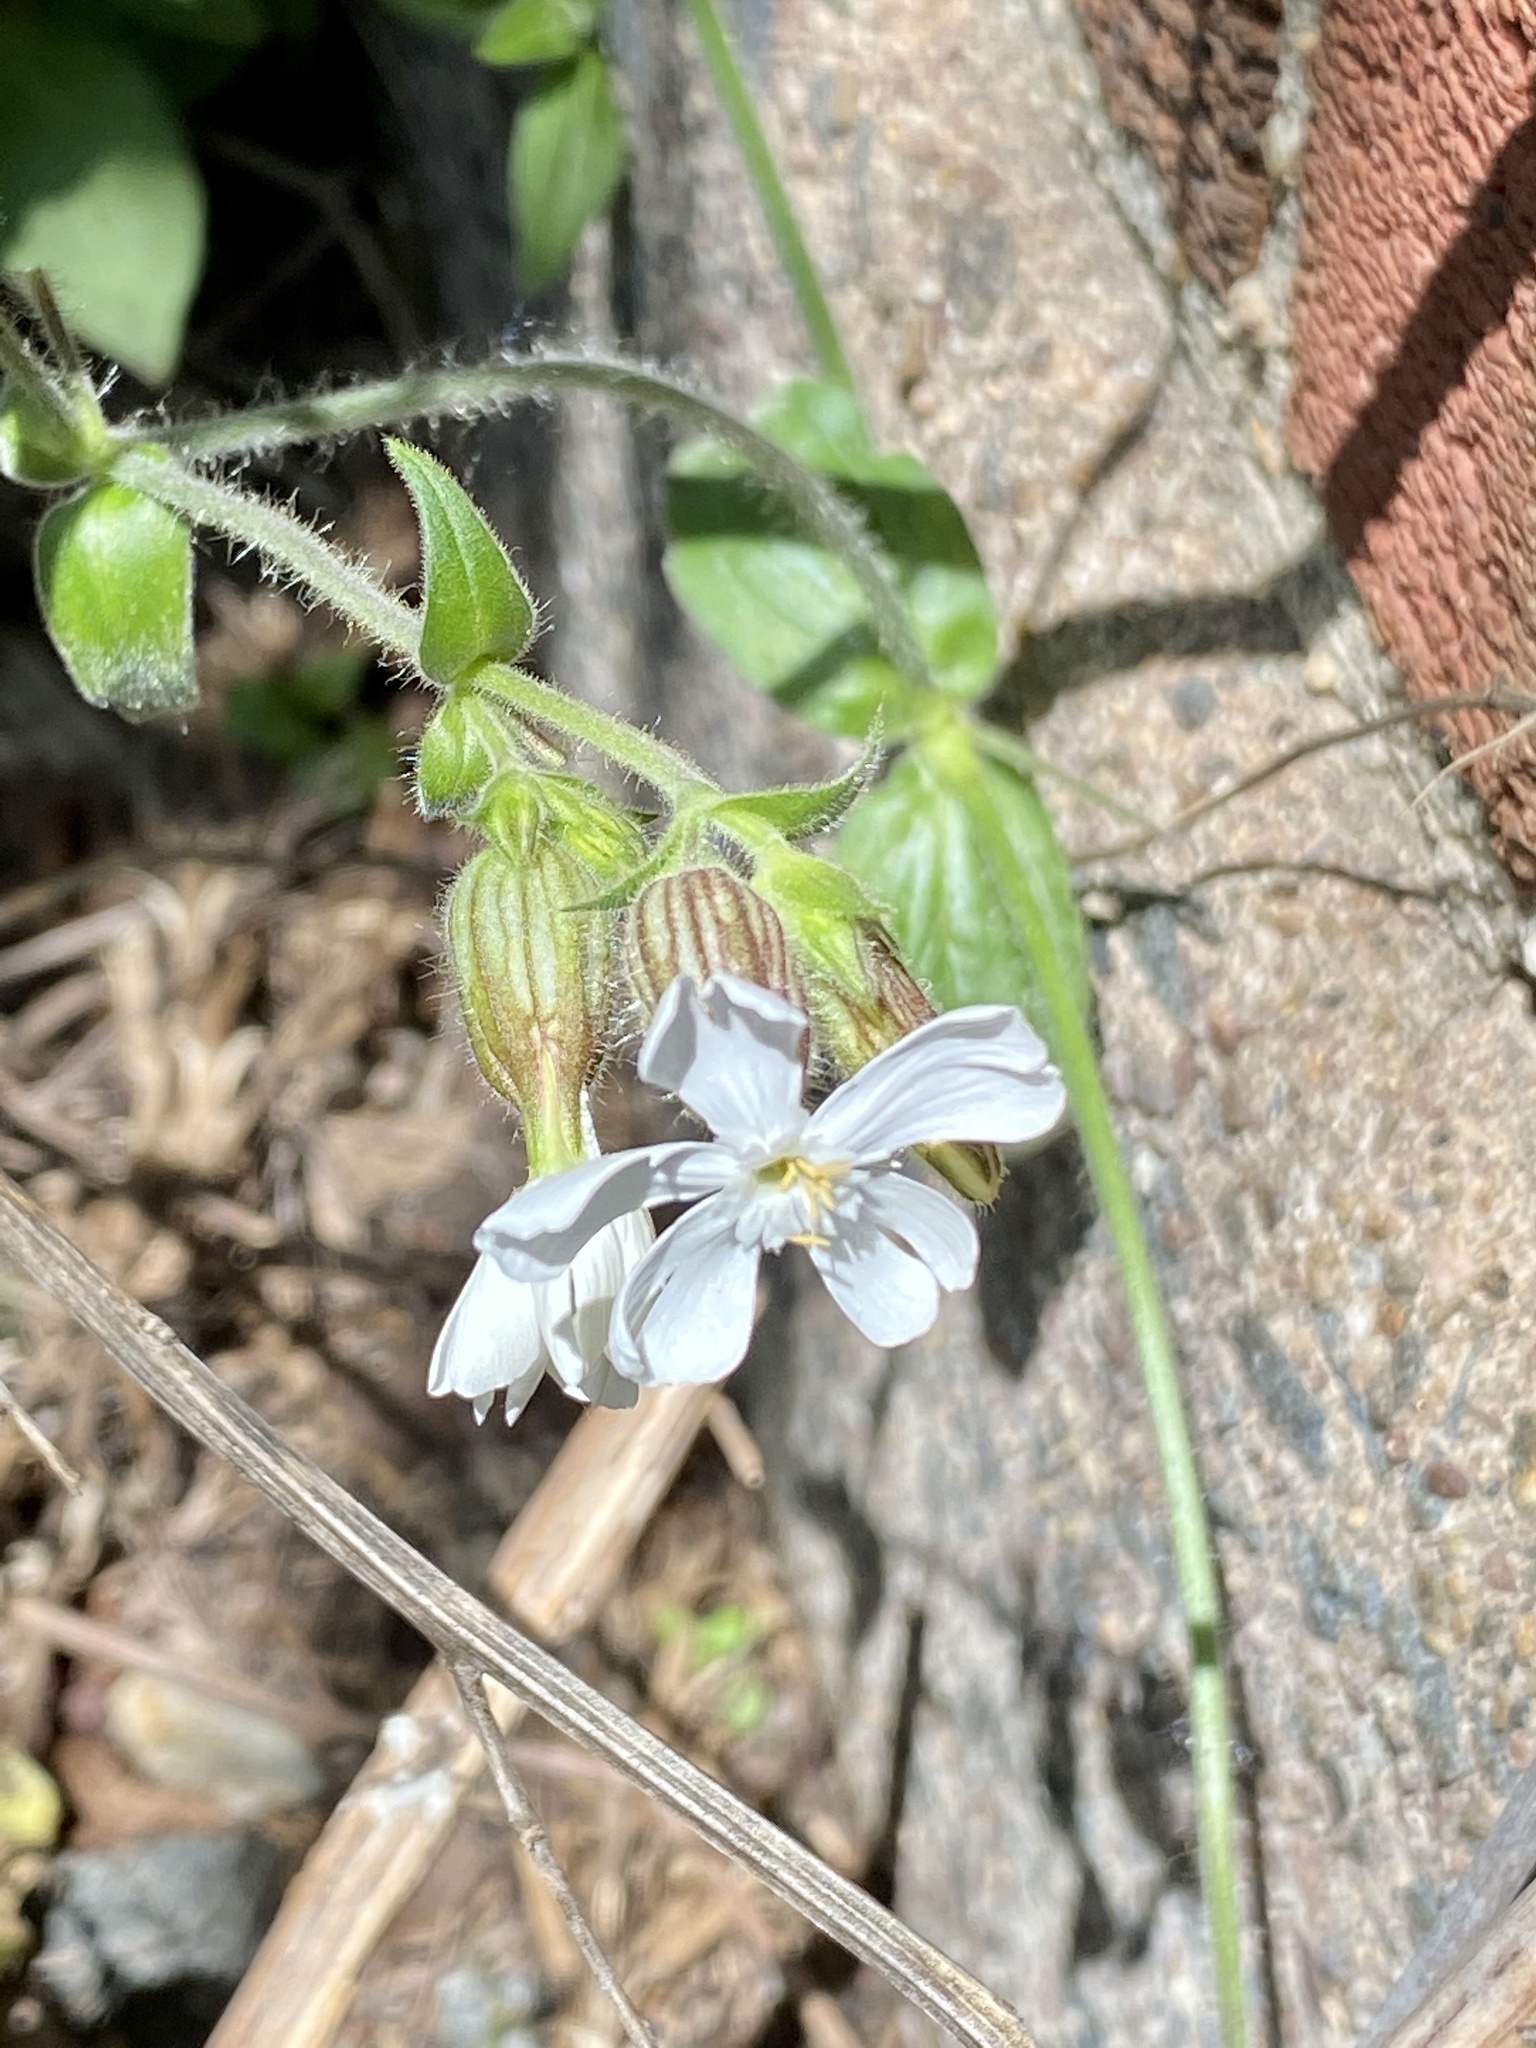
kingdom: Plantae
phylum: Tracheophyta
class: Magnoliopsida
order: Caryophyllales
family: Caryophyllaceae
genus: Silene
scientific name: Silene latifolia
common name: White campion
